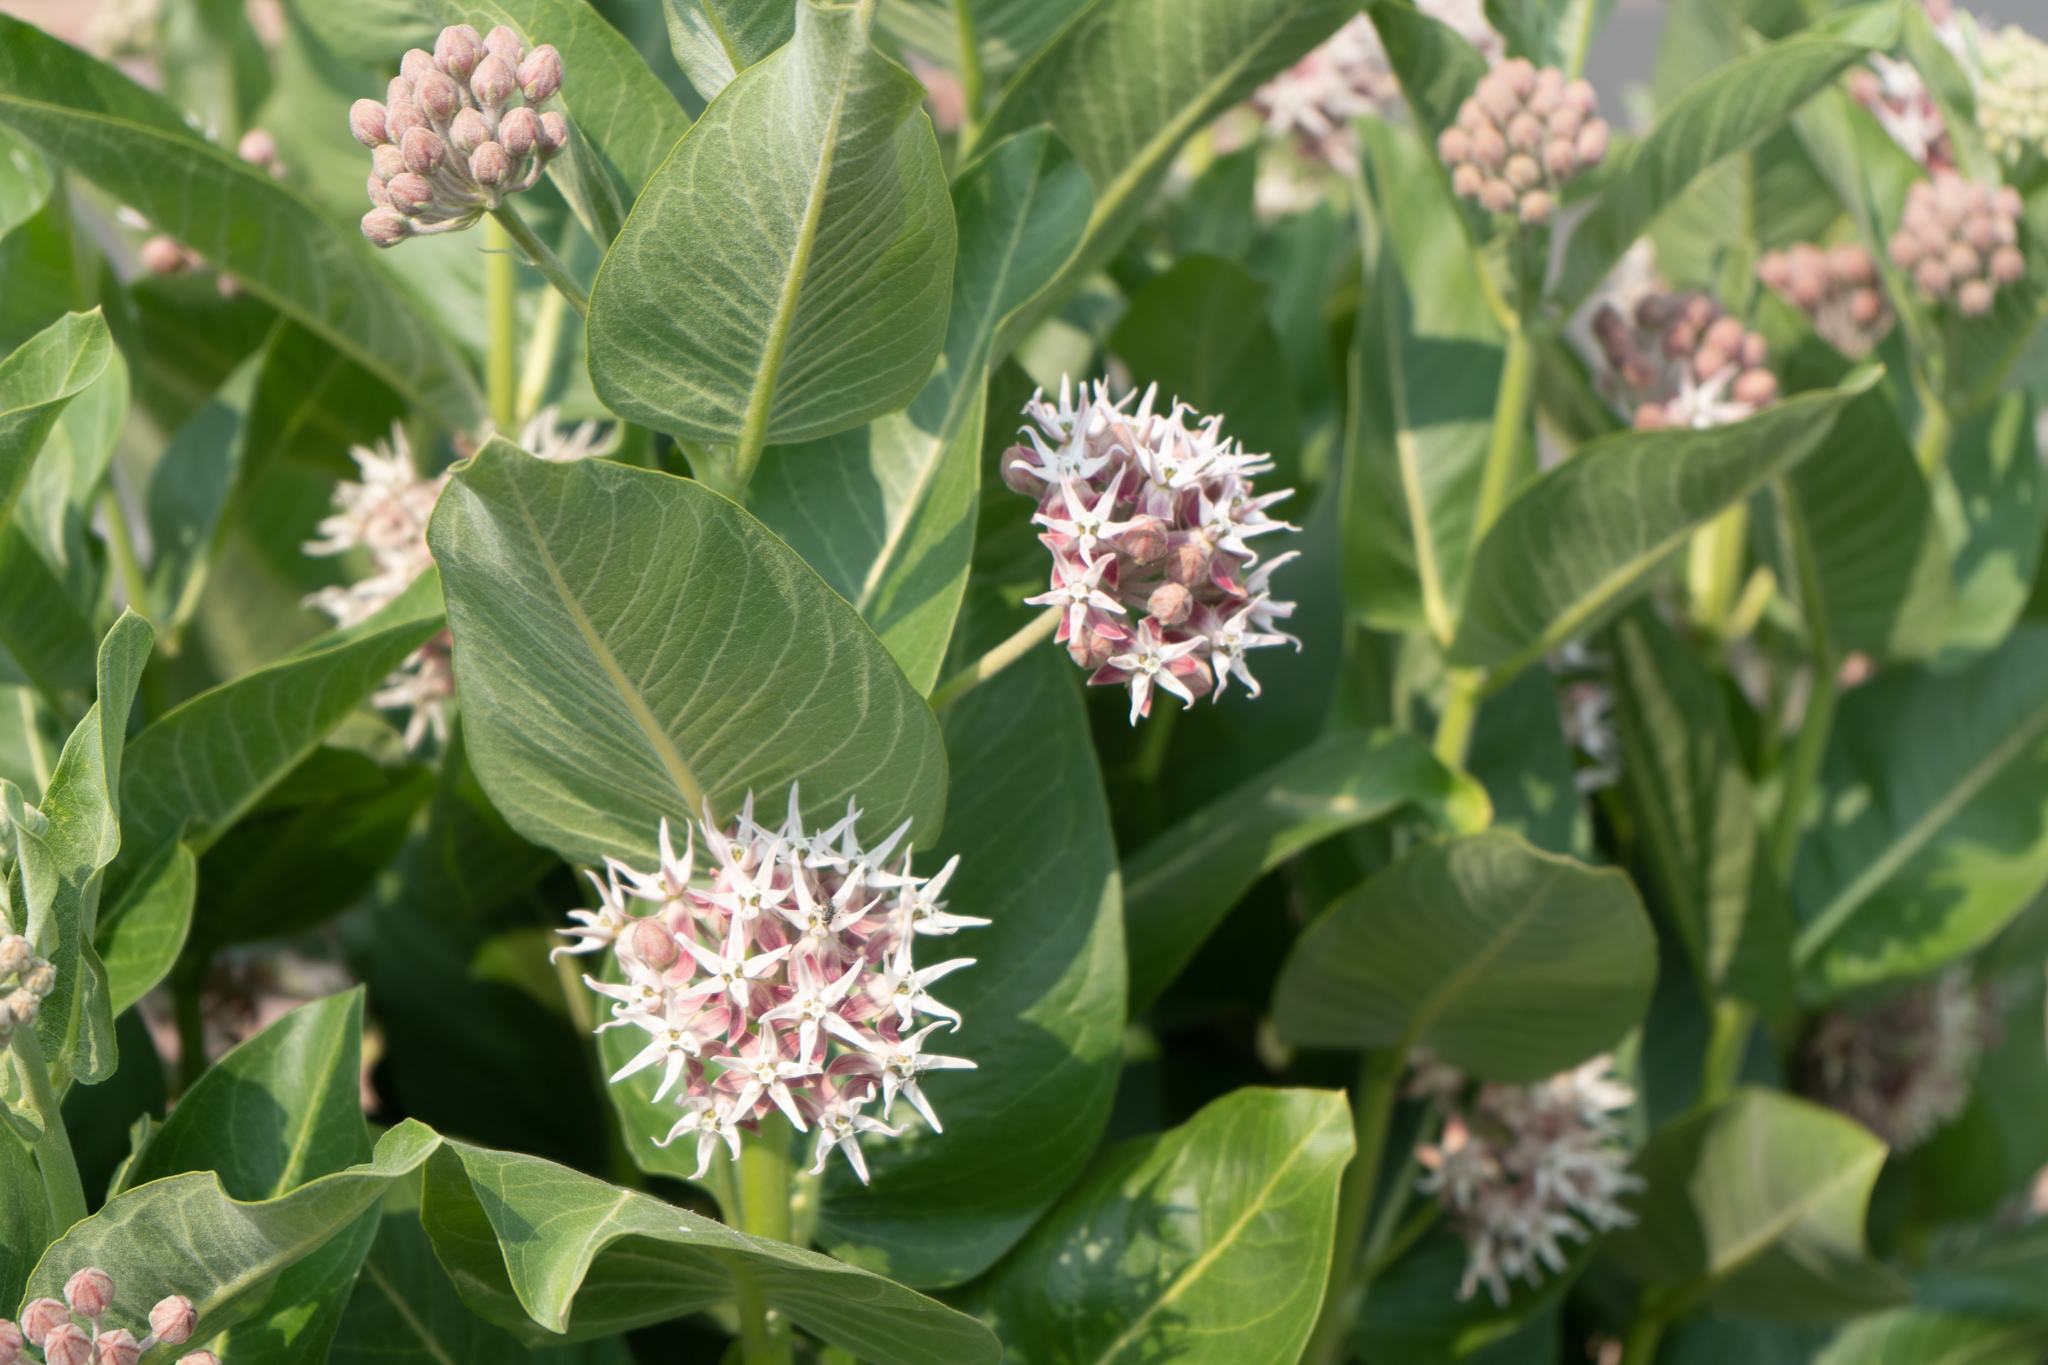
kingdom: Plantae
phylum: Tracheophyta
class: Magnoliopsida
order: Gentianales
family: Apocynaceae
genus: Asclepias
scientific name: Asclepias speciosa
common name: Showy milkweed
